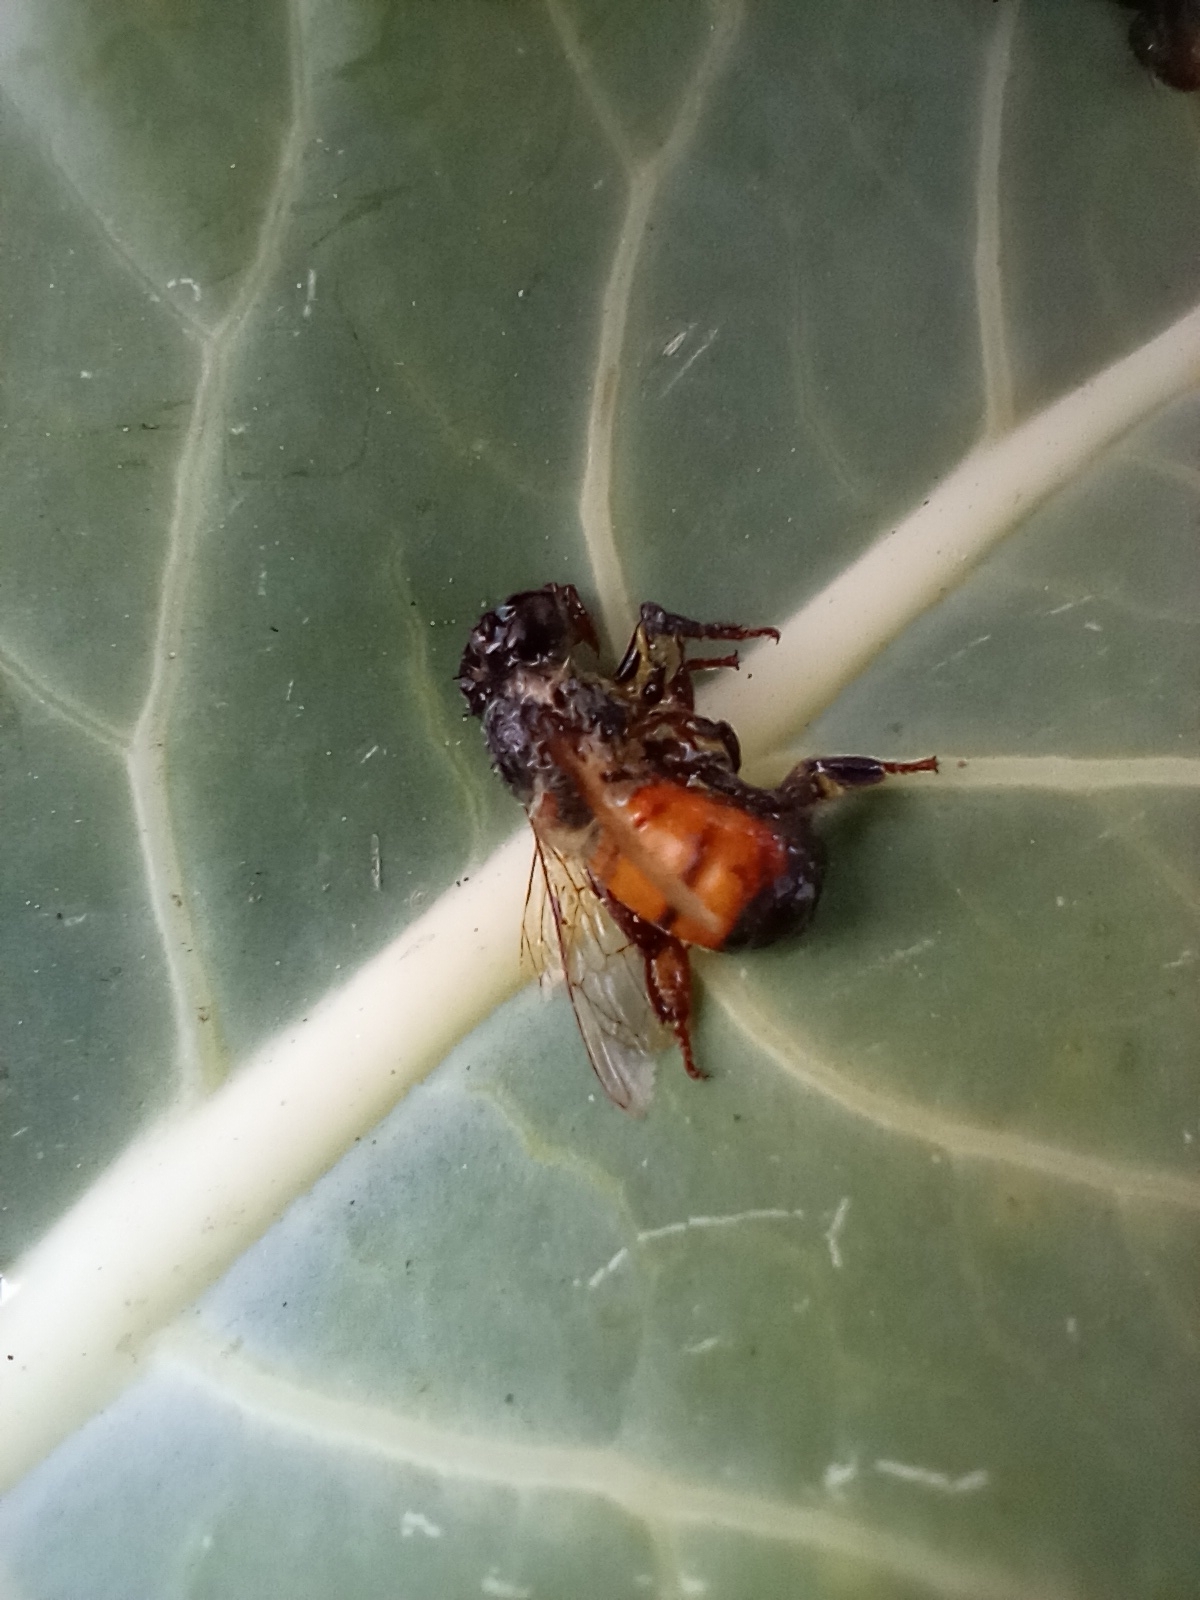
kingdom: Animalia
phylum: Arthropoda
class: Insecta
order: Hymenoptera
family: Apidae
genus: Apis
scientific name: Apis mellifera
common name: Honey bee
